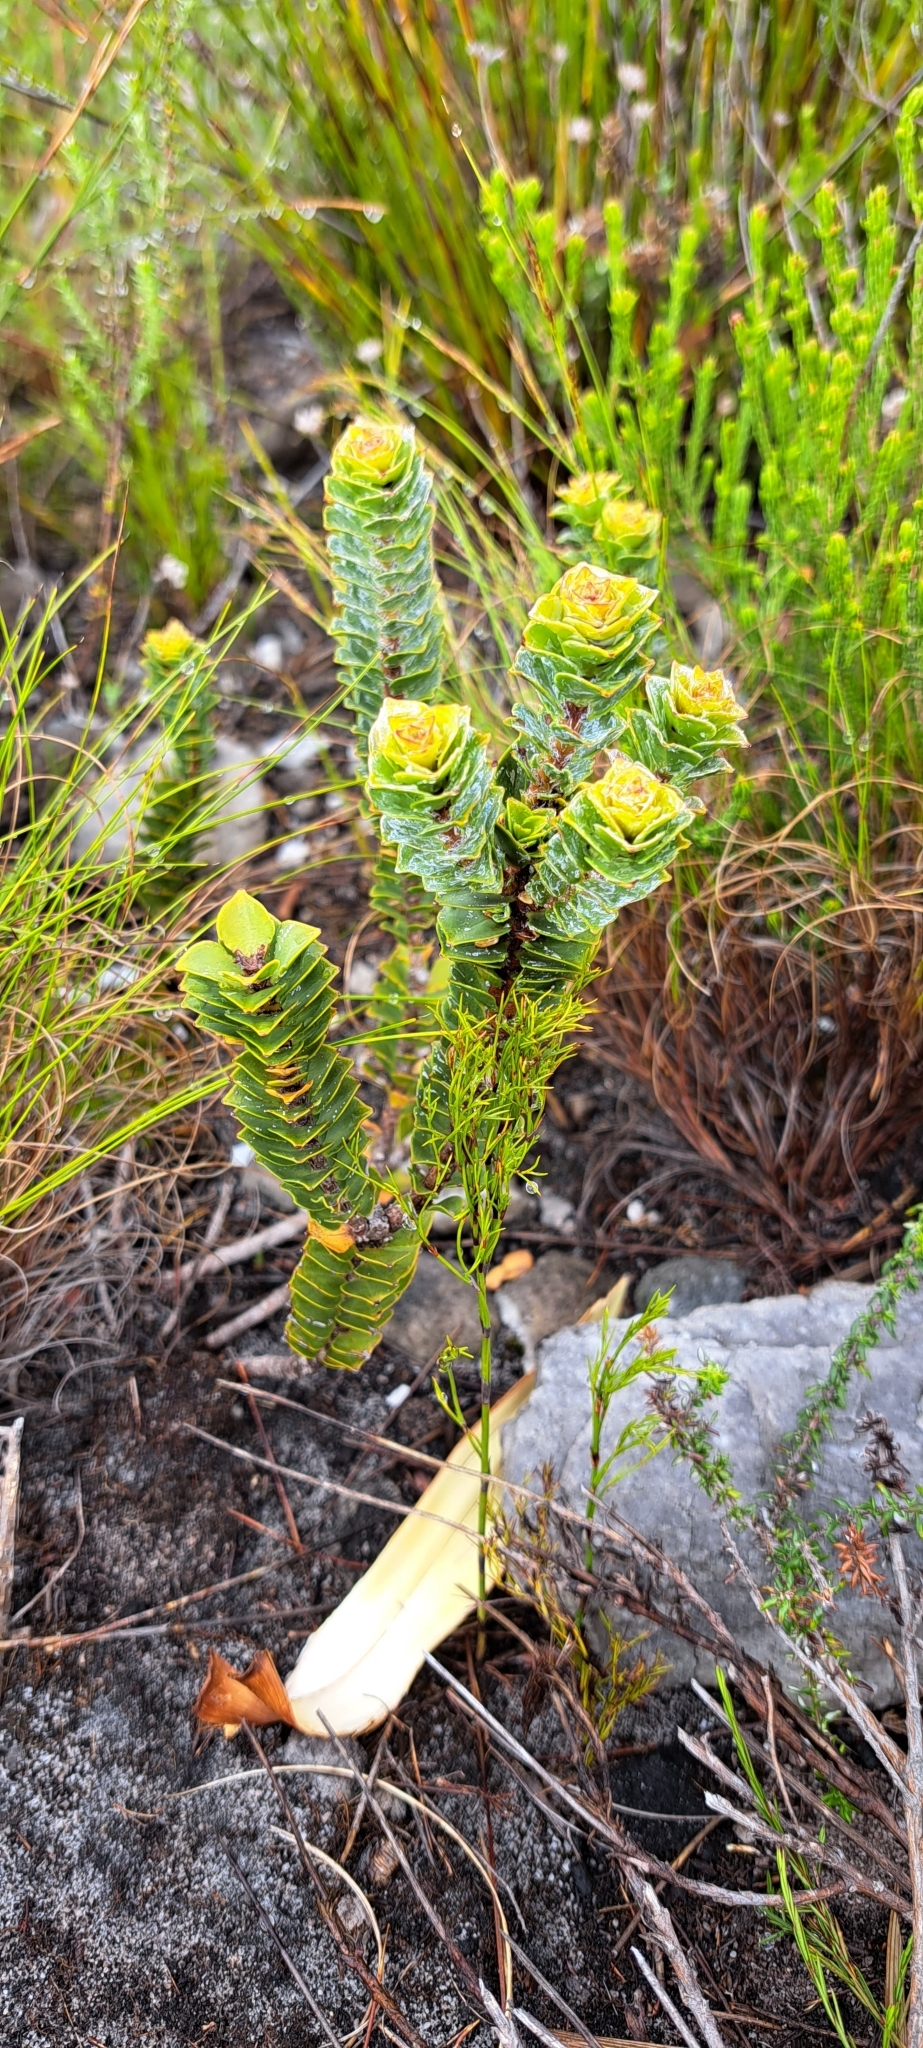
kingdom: Plantae
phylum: Tracheophyta
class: Magnoliopsida
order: Myrtales
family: Penaeaceae
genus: Saltera
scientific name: Saltera sarcocolla
